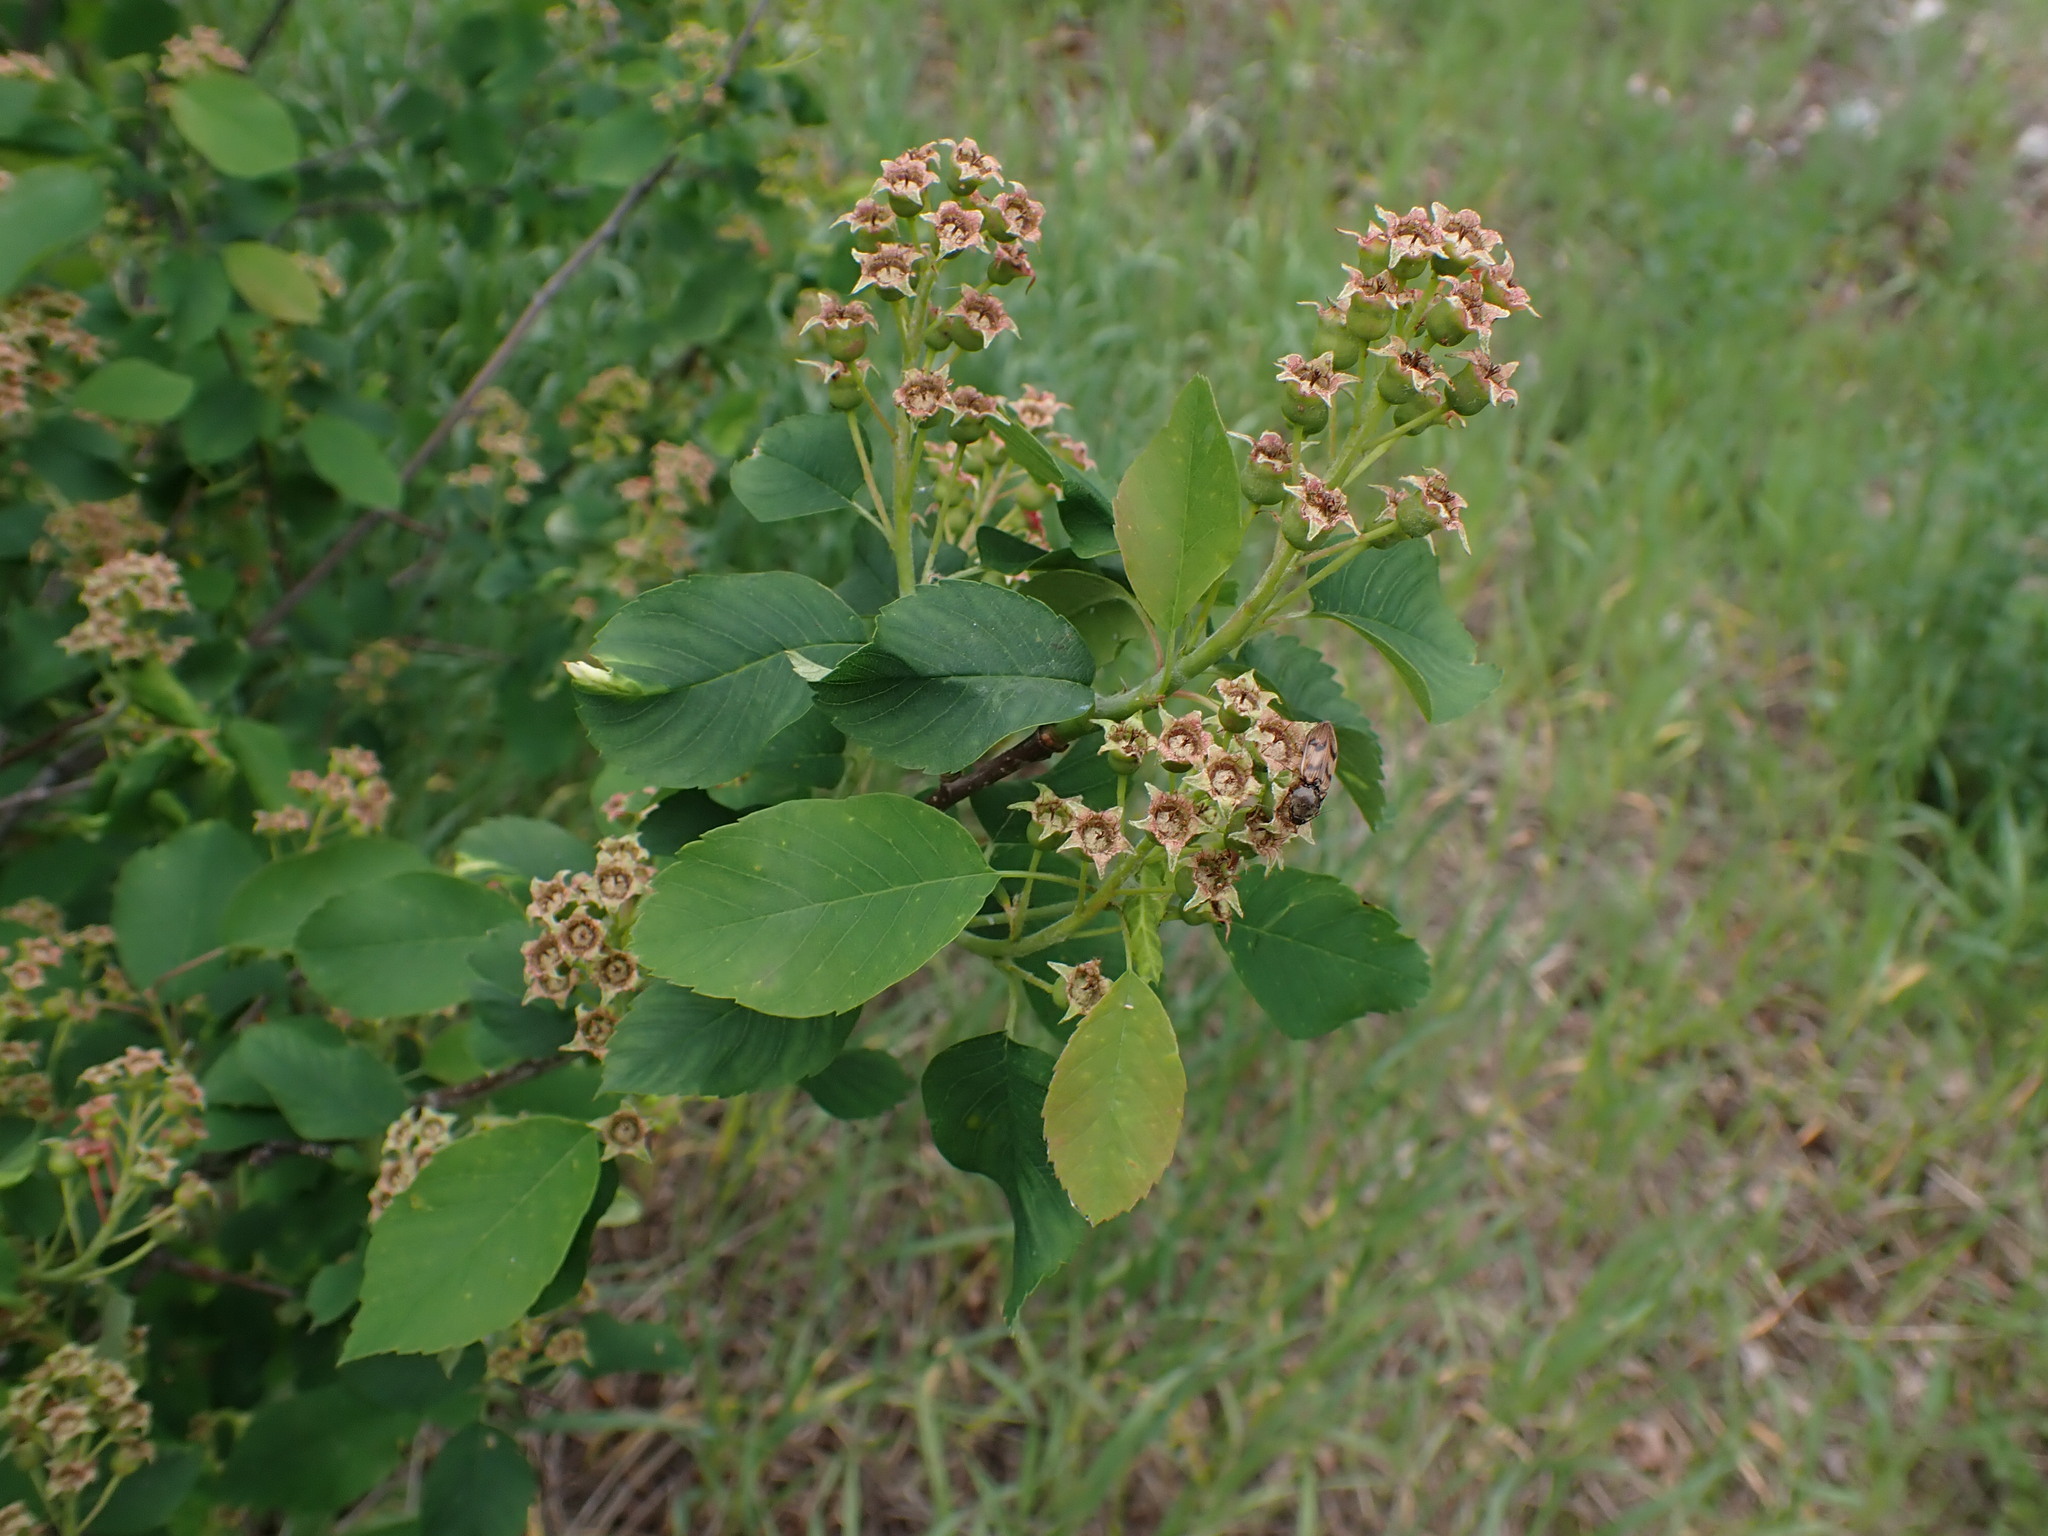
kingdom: Plantae
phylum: Tracheophyta
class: Magnoliopsida
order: Rosales
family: Rosaceae
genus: Amelanchier
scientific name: Amelanchier alnifolia
